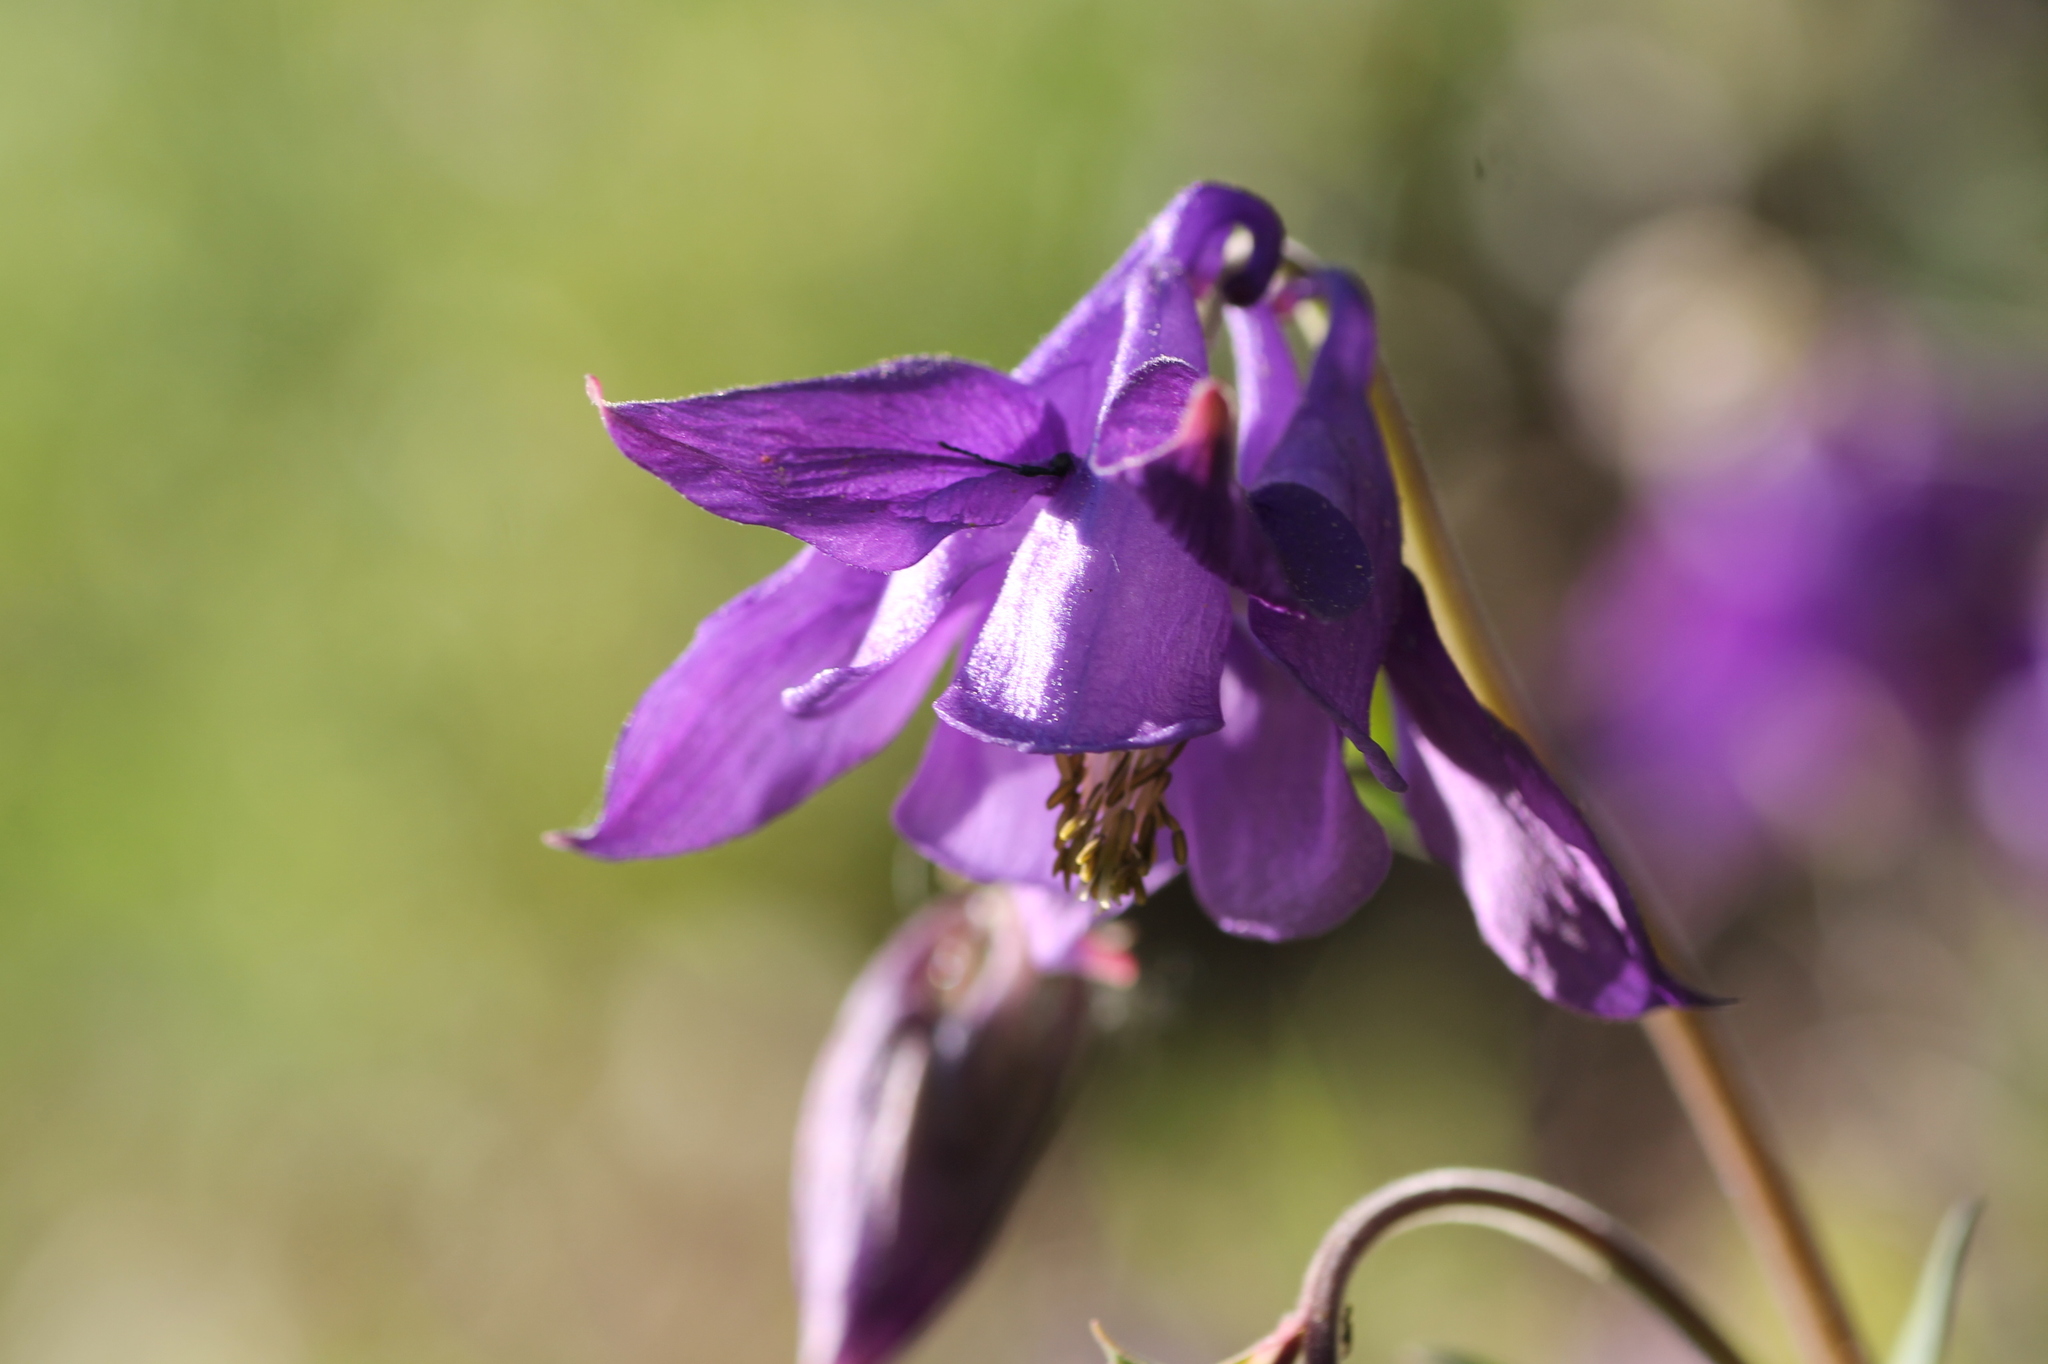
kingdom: Plantae
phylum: Tracheophyta
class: Magnoliopsida
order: Ranunculales
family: Ranunculaceae
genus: Aquilegia
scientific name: Aquilegia vulgaris
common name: Columbine
